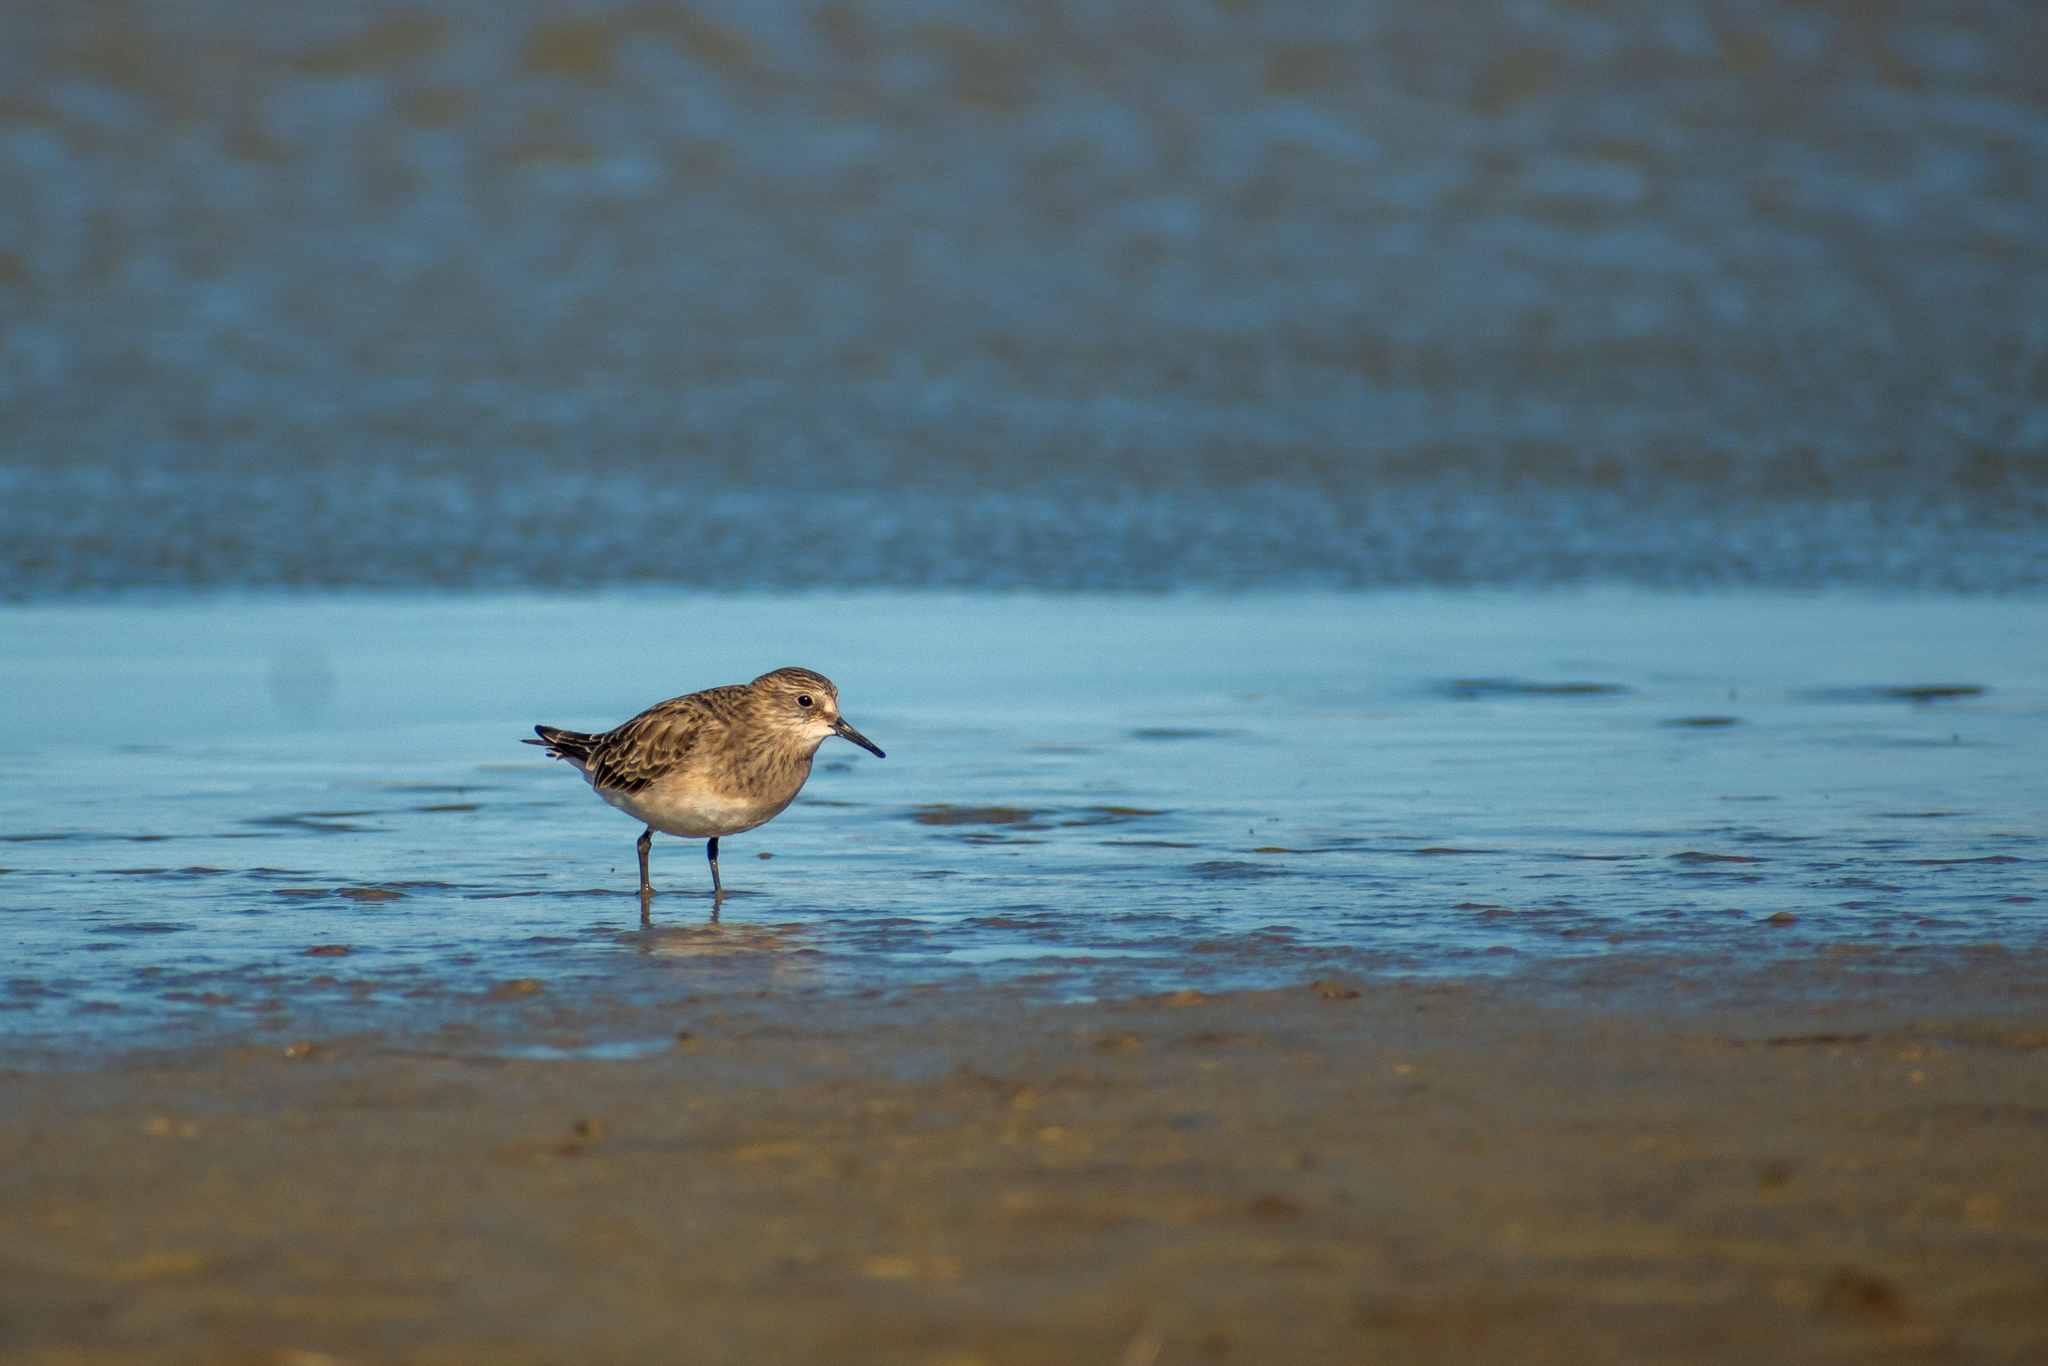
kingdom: Animalia
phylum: Chordata
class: Aves
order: Charadriiformes
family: Scolopacidae
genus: Calidris
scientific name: Calidris bairdii
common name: Baird's sandpiper
